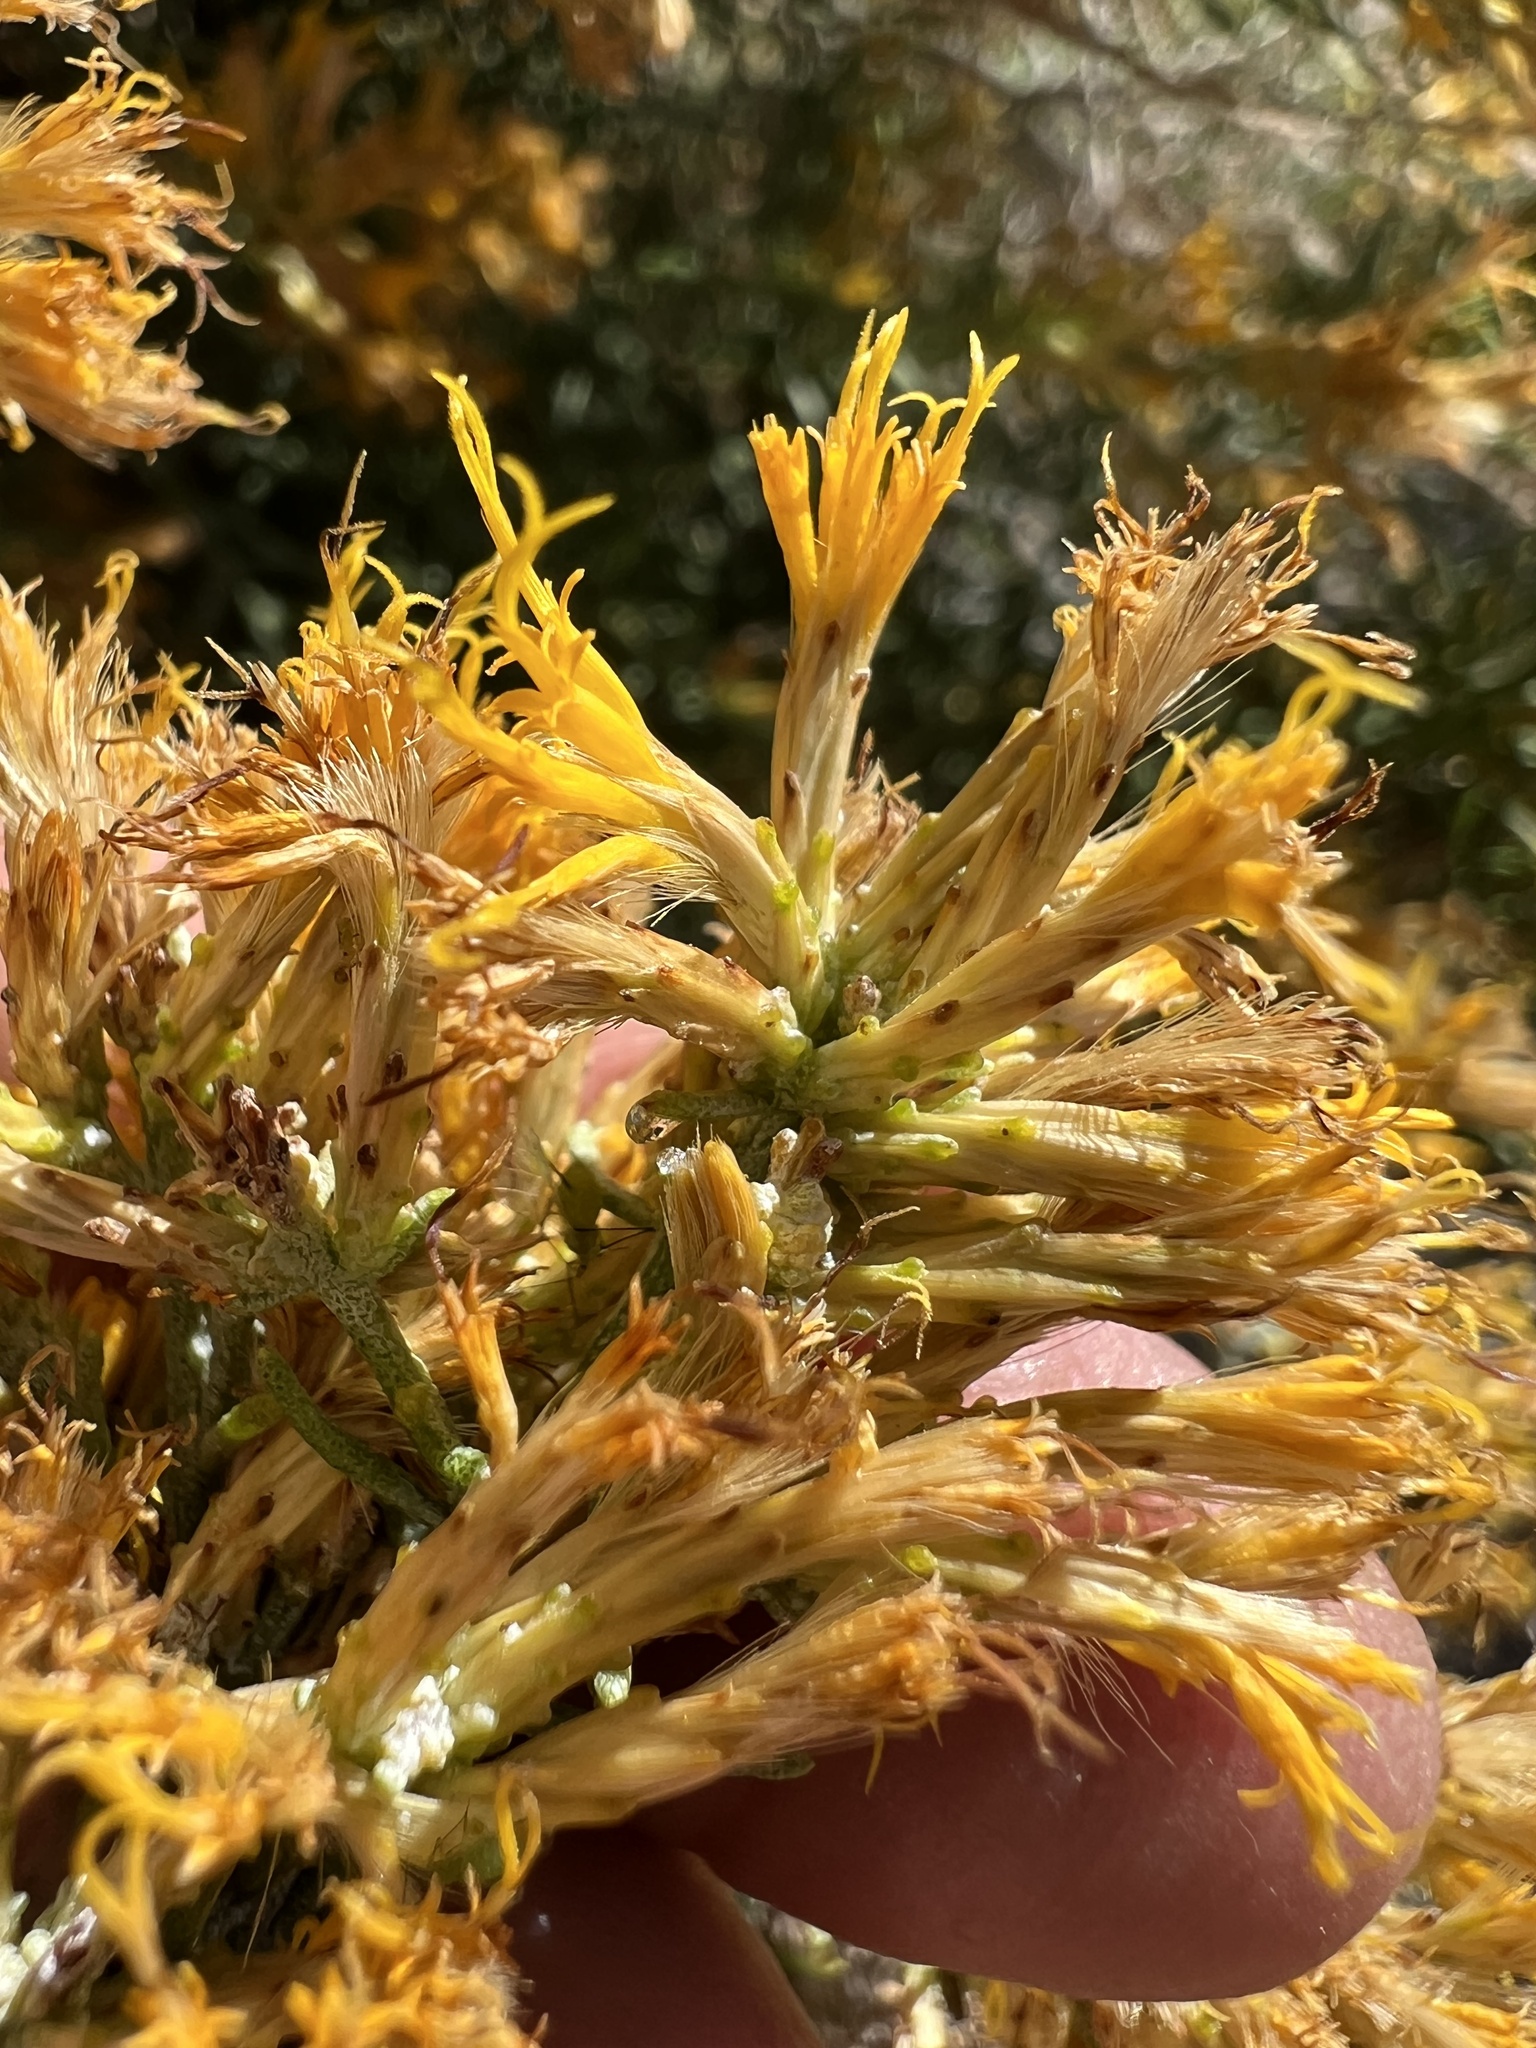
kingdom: Plantae
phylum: Tracheophyta
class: Magnoliopsida
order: Asterales
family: Asteraceae
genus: Ericameria
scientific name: Ericameria teretifolia
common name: Round-leaf rabbitbrush
